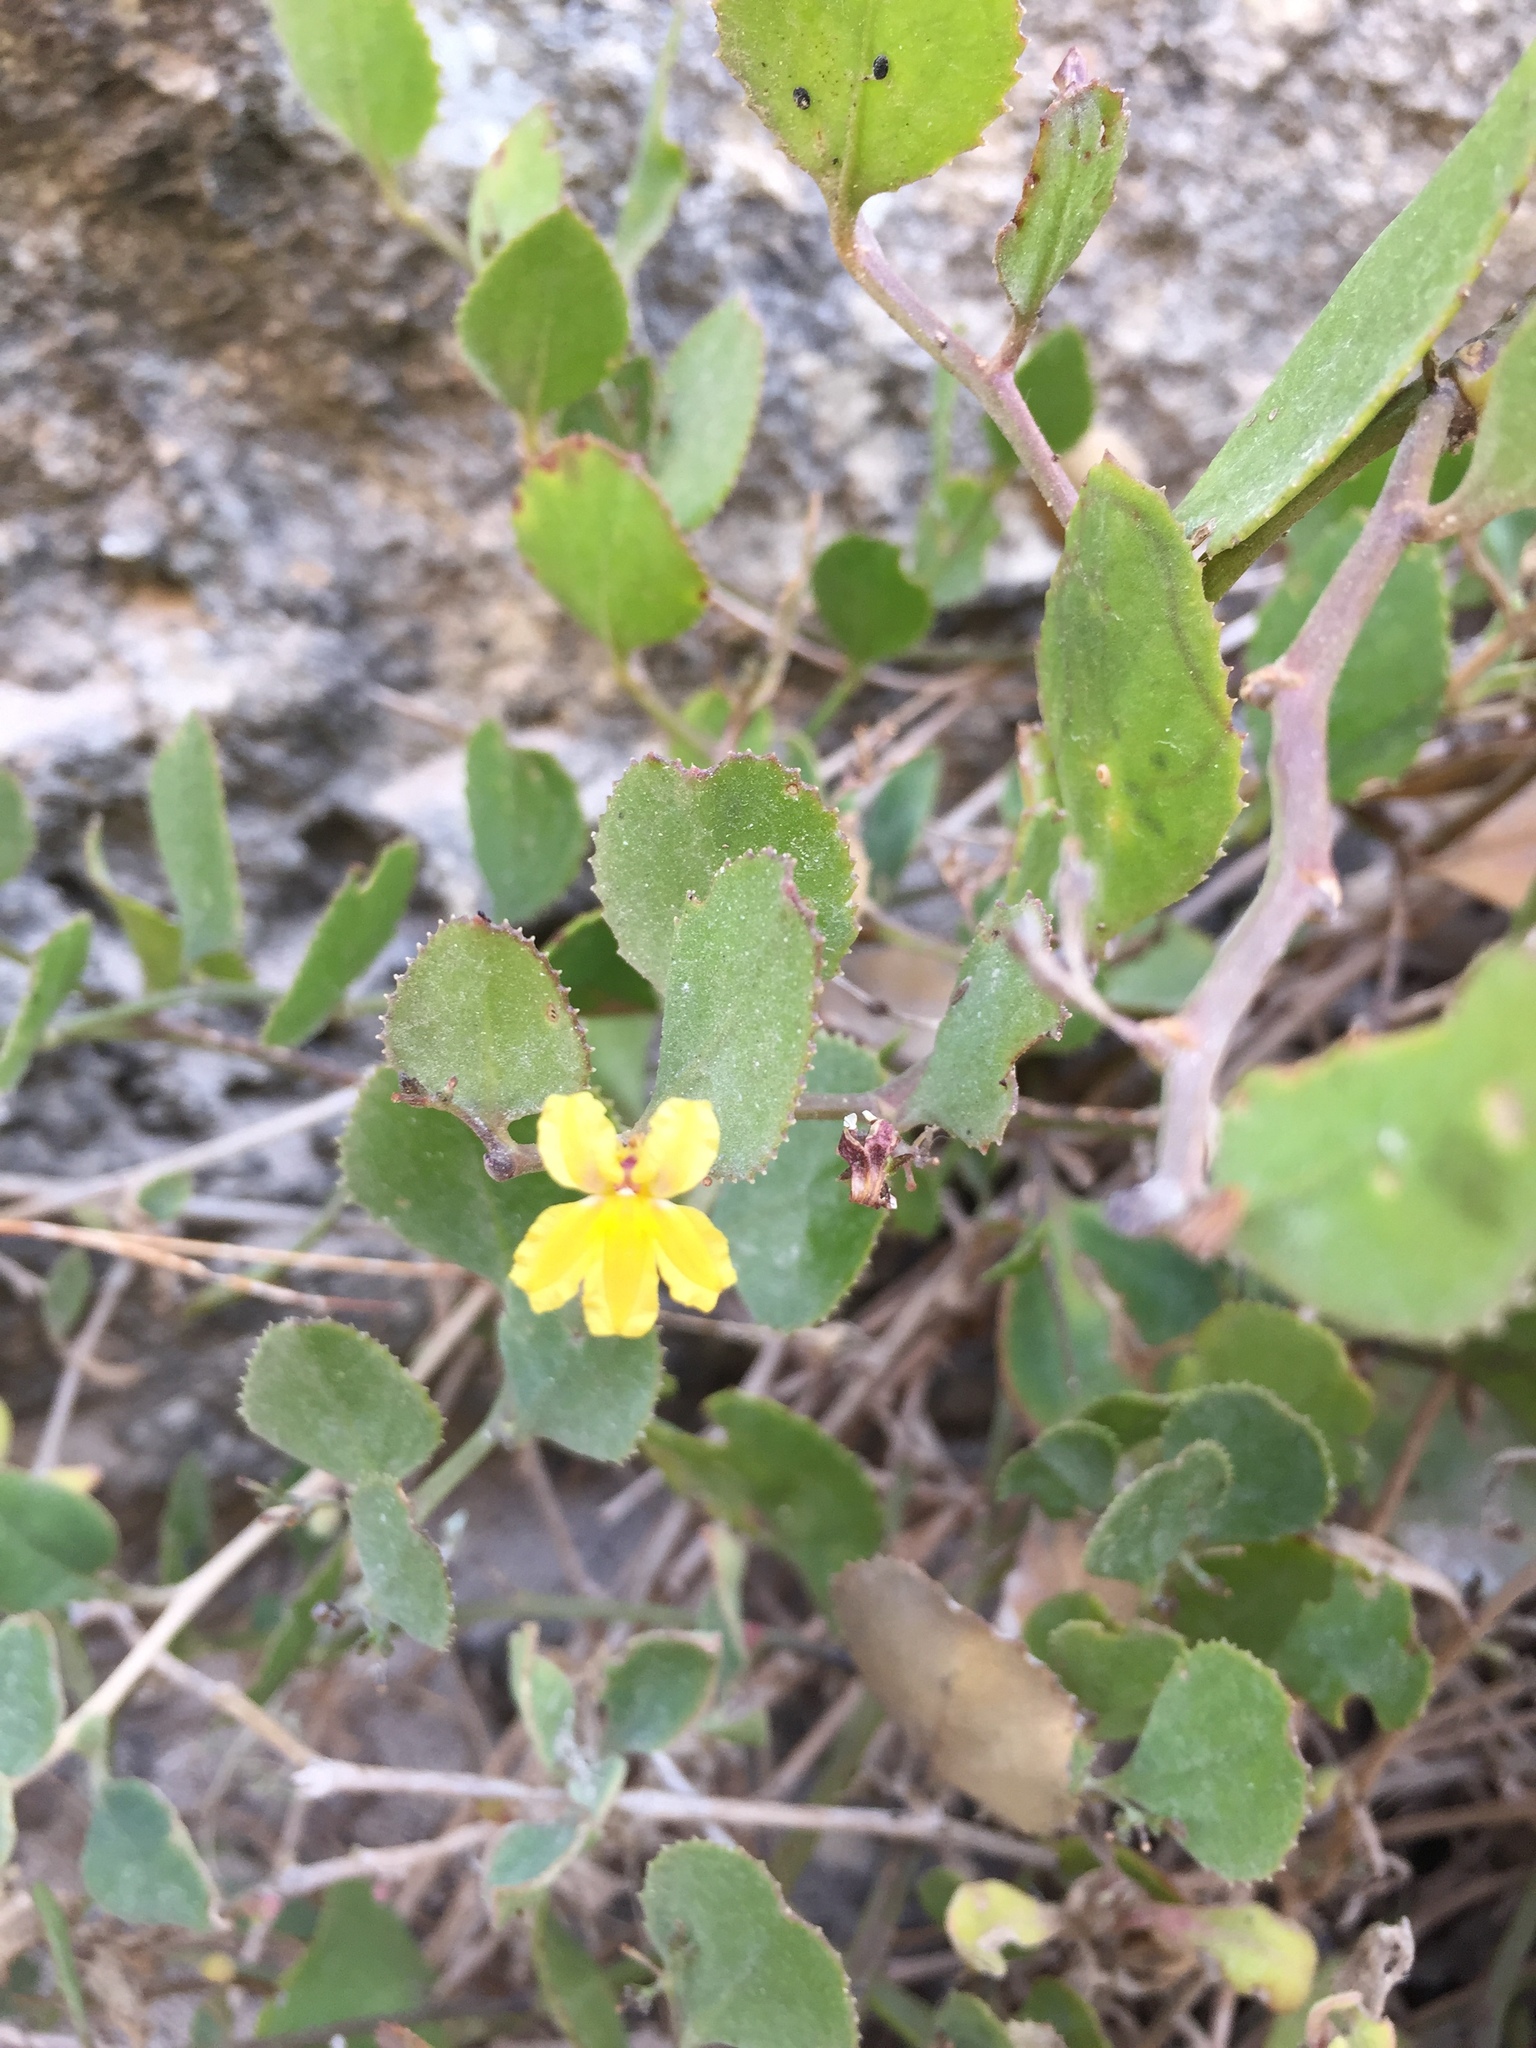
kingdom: Plantae
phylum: Tracheophyta
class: Magnoliopsida
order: Asterales
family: Goodeniaceae
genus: Goodenia
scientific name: Goodenia varia
